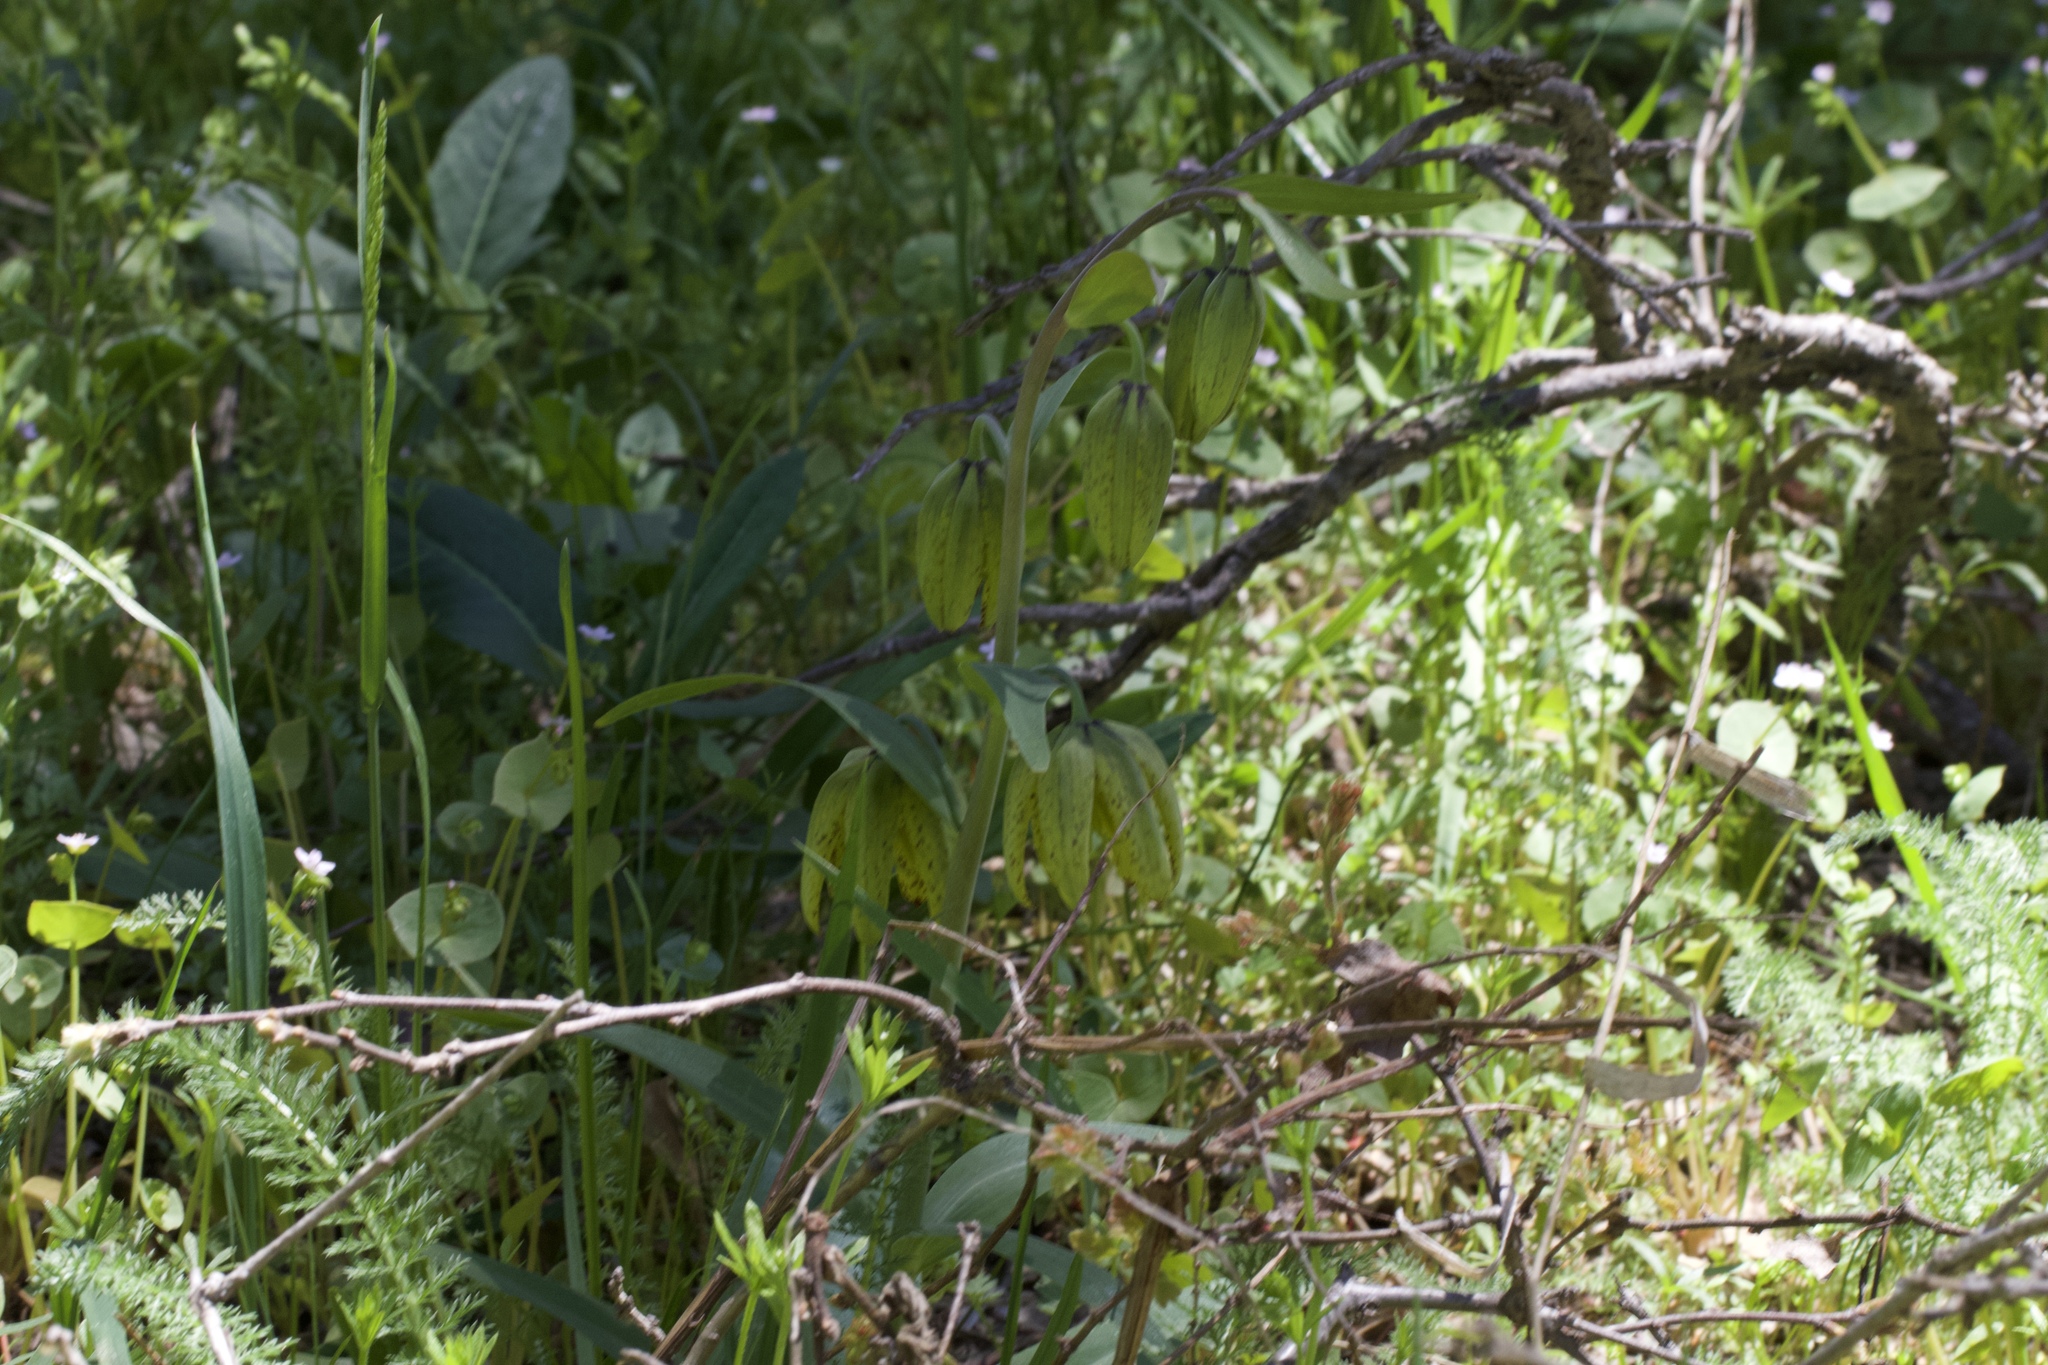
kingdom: Plantae
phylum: Tracheophyta
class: Liliopsida
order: Liliales
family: Liliaceae
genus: Fritillaria
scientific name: Fritillaria affinis
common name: Ojai fritillary
